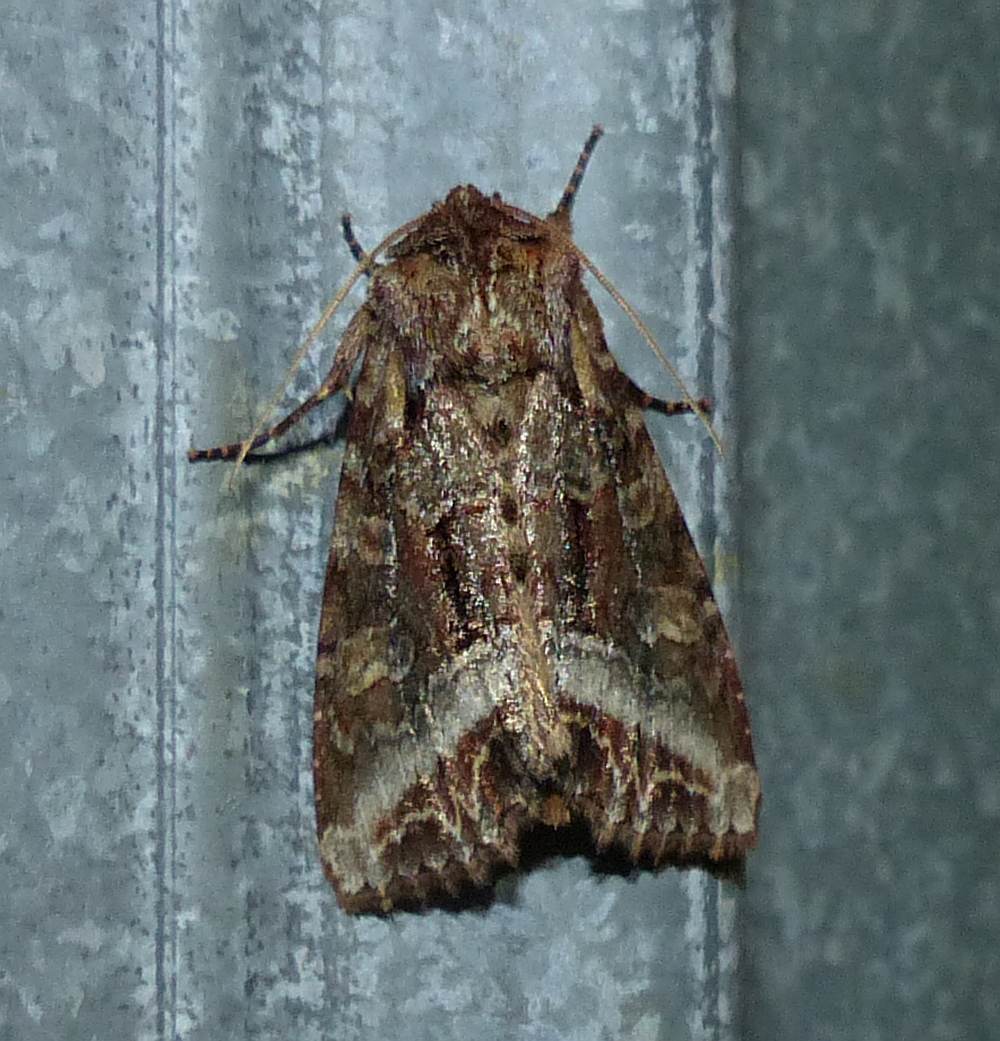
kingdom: Animalia
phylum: Arthropoda
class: Insecta
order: Lepidoptera
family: Noctuidae
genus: Lacanobia
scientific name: Lacanobia grandis
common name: Grand arches moth
